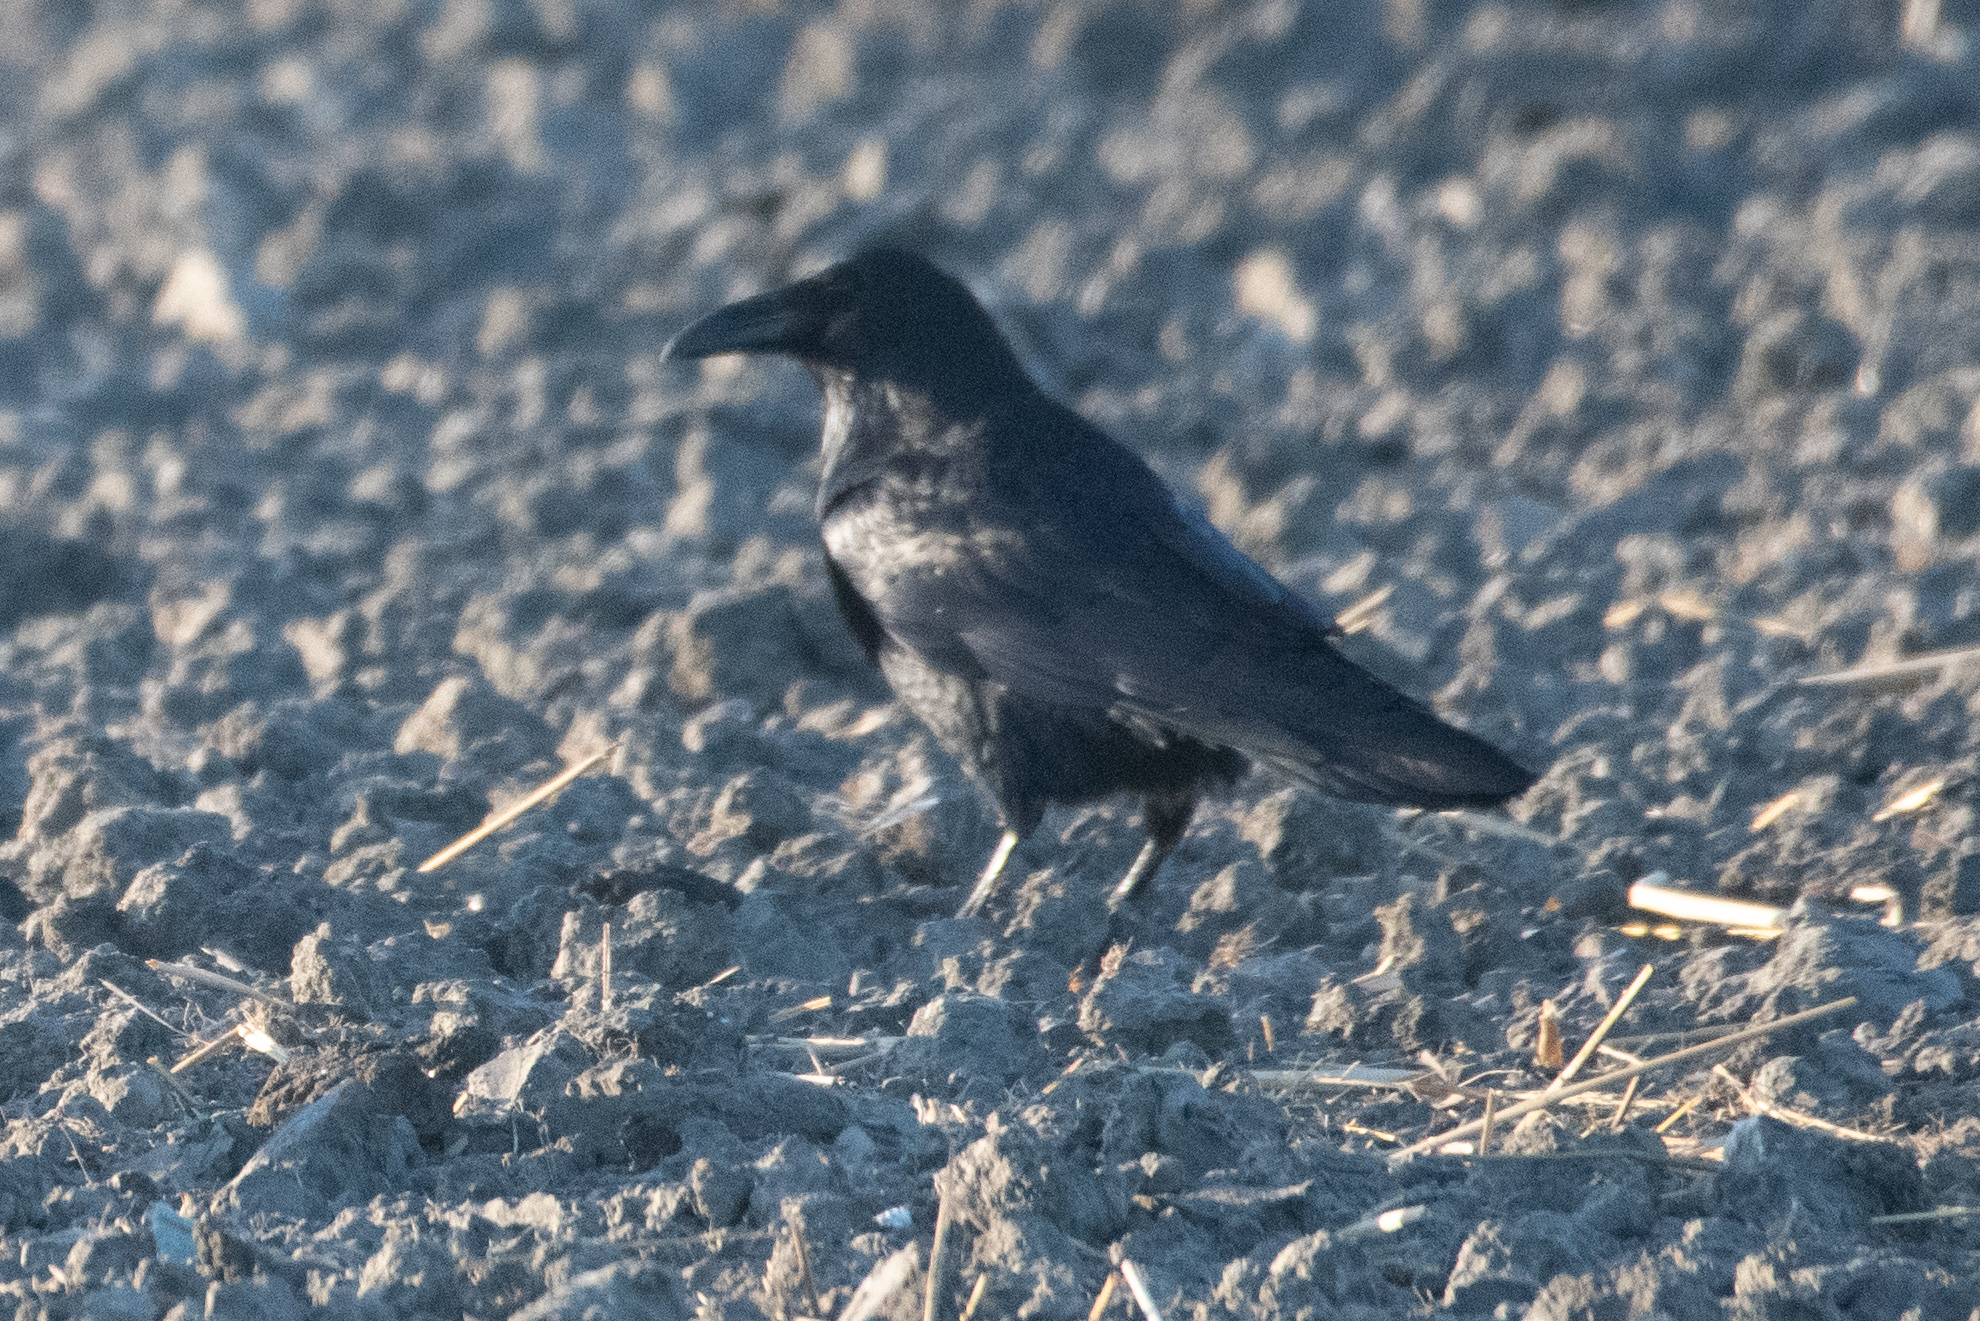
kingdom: Animalia
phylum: Chordata
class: Aves
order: Passeriformes
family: Corvidae
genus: Corvus
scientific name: Corvus corax
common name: Common raven
